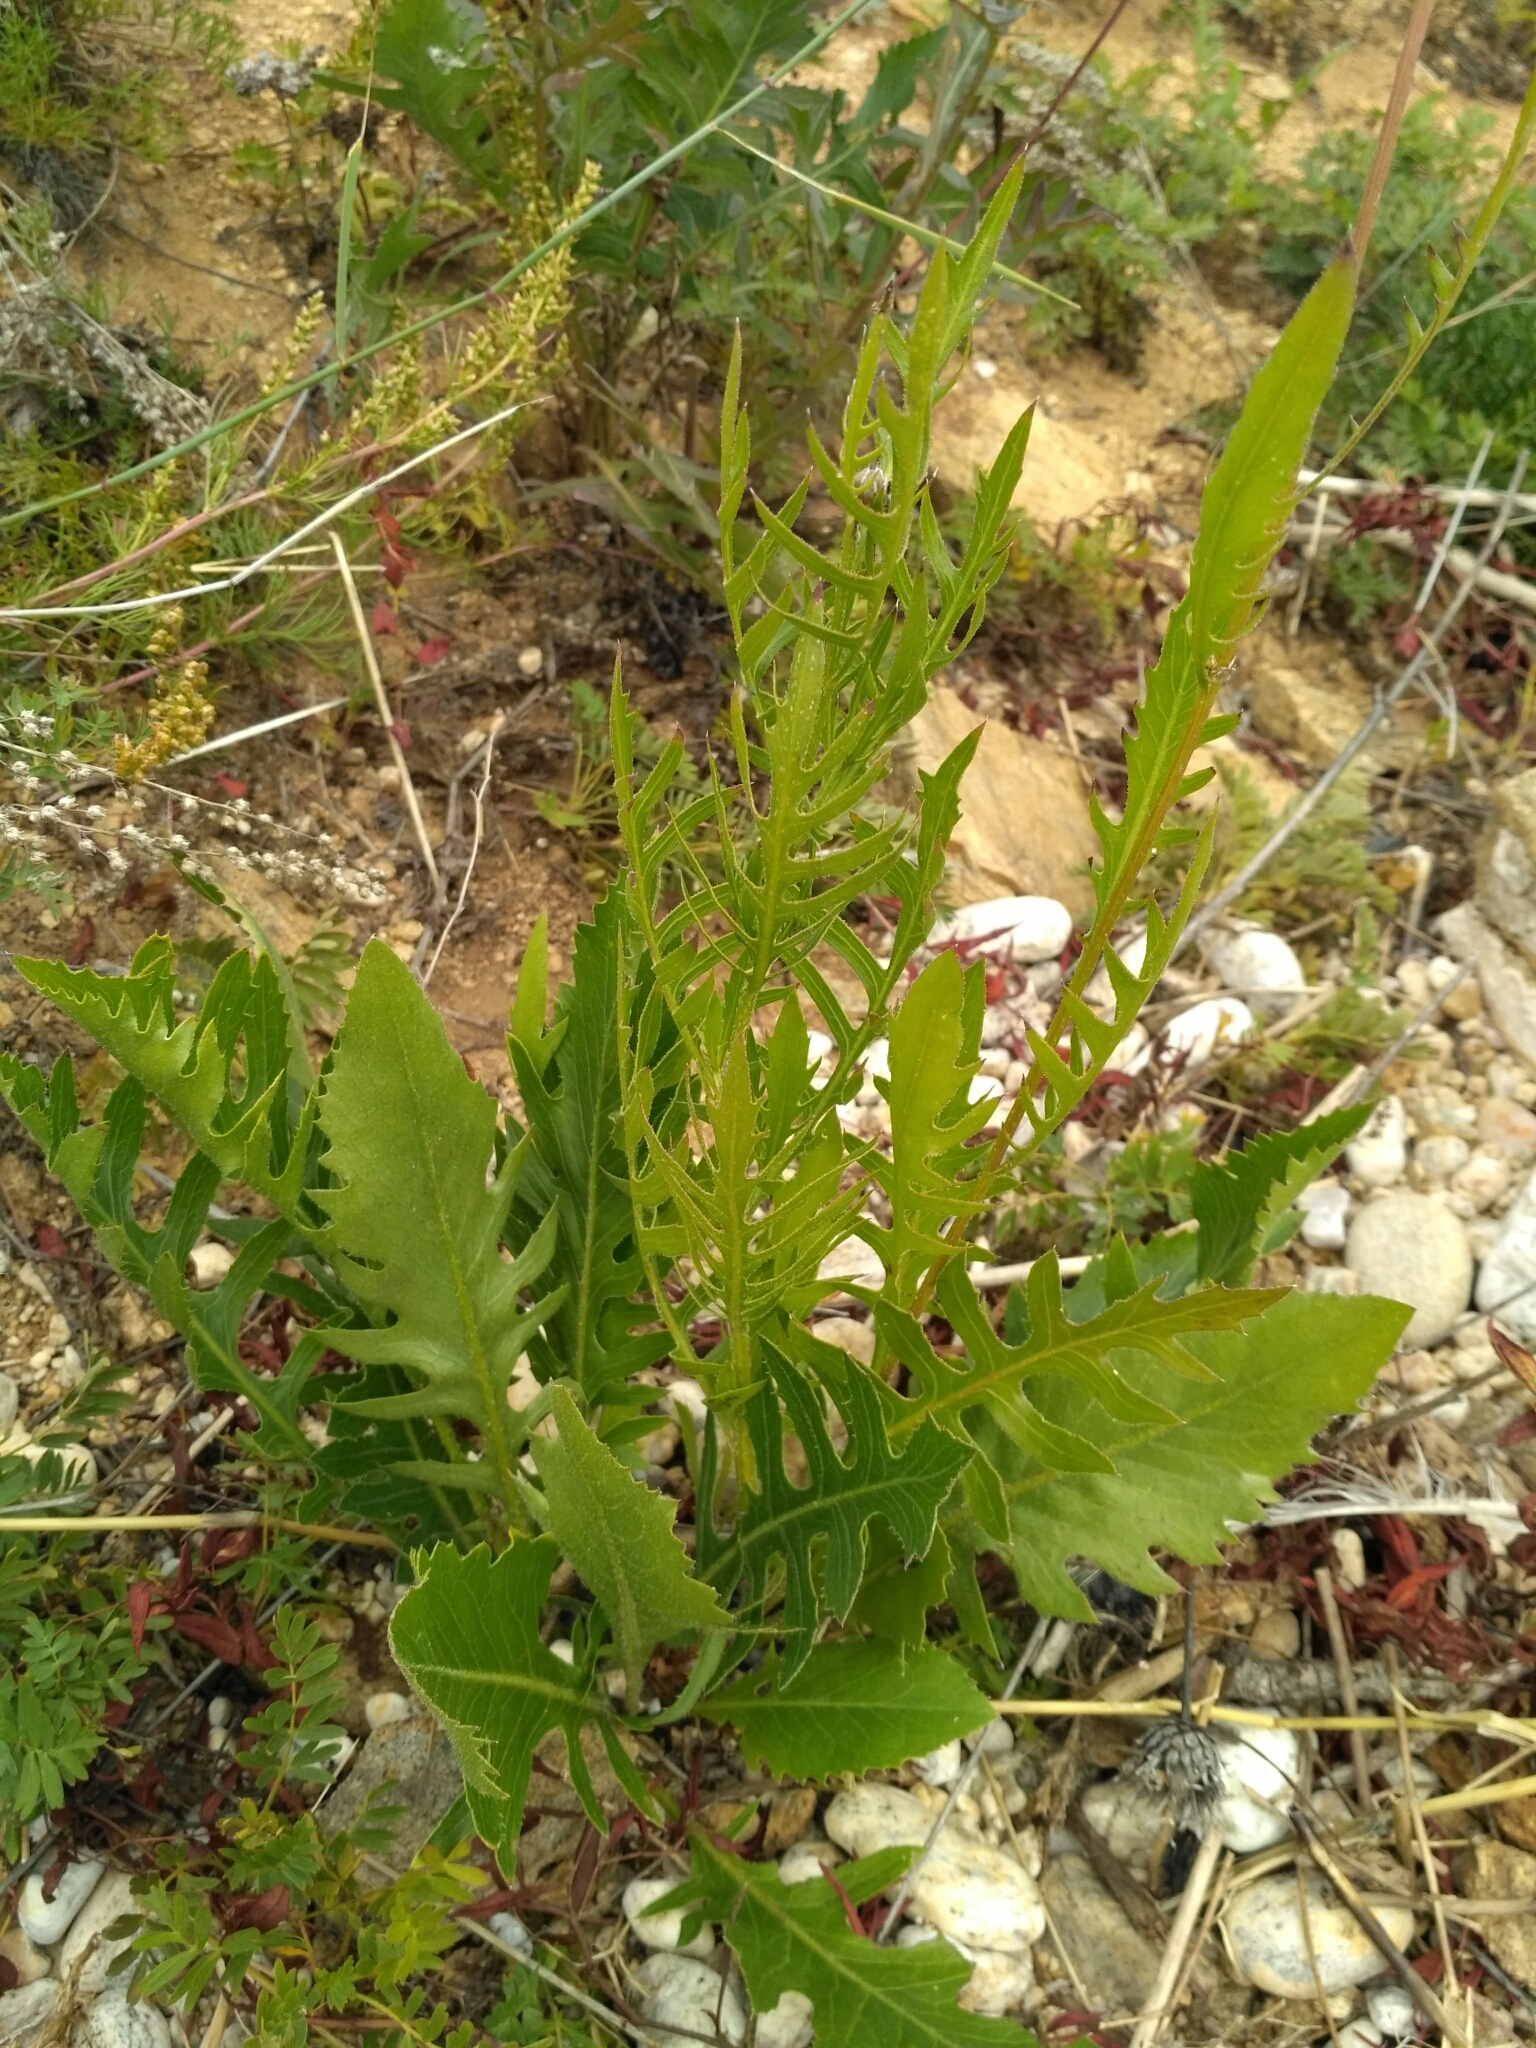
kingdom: Plantae
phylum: Tracheophyta
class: Magnoliopsida
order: Asterales
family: Asteraceae
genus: Klasea
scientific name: Klasea centauroides
